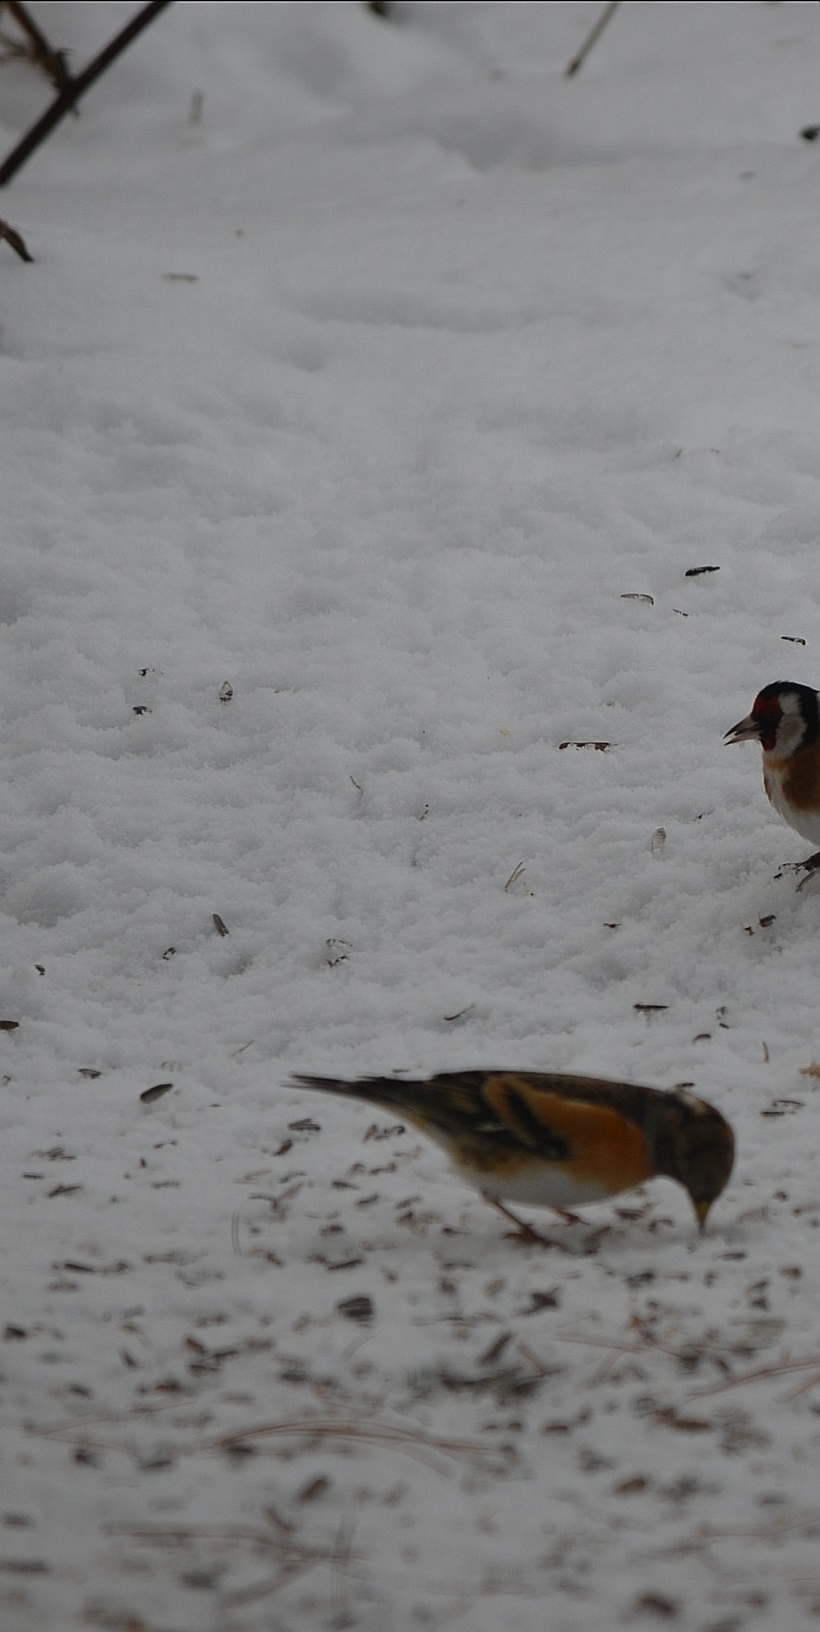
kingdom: Animalia
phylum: Chordata
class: Aves
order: Passeriformes
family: Fringillidae
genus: Fringilla
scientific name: Fringilla montifringilla
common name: Brambling
